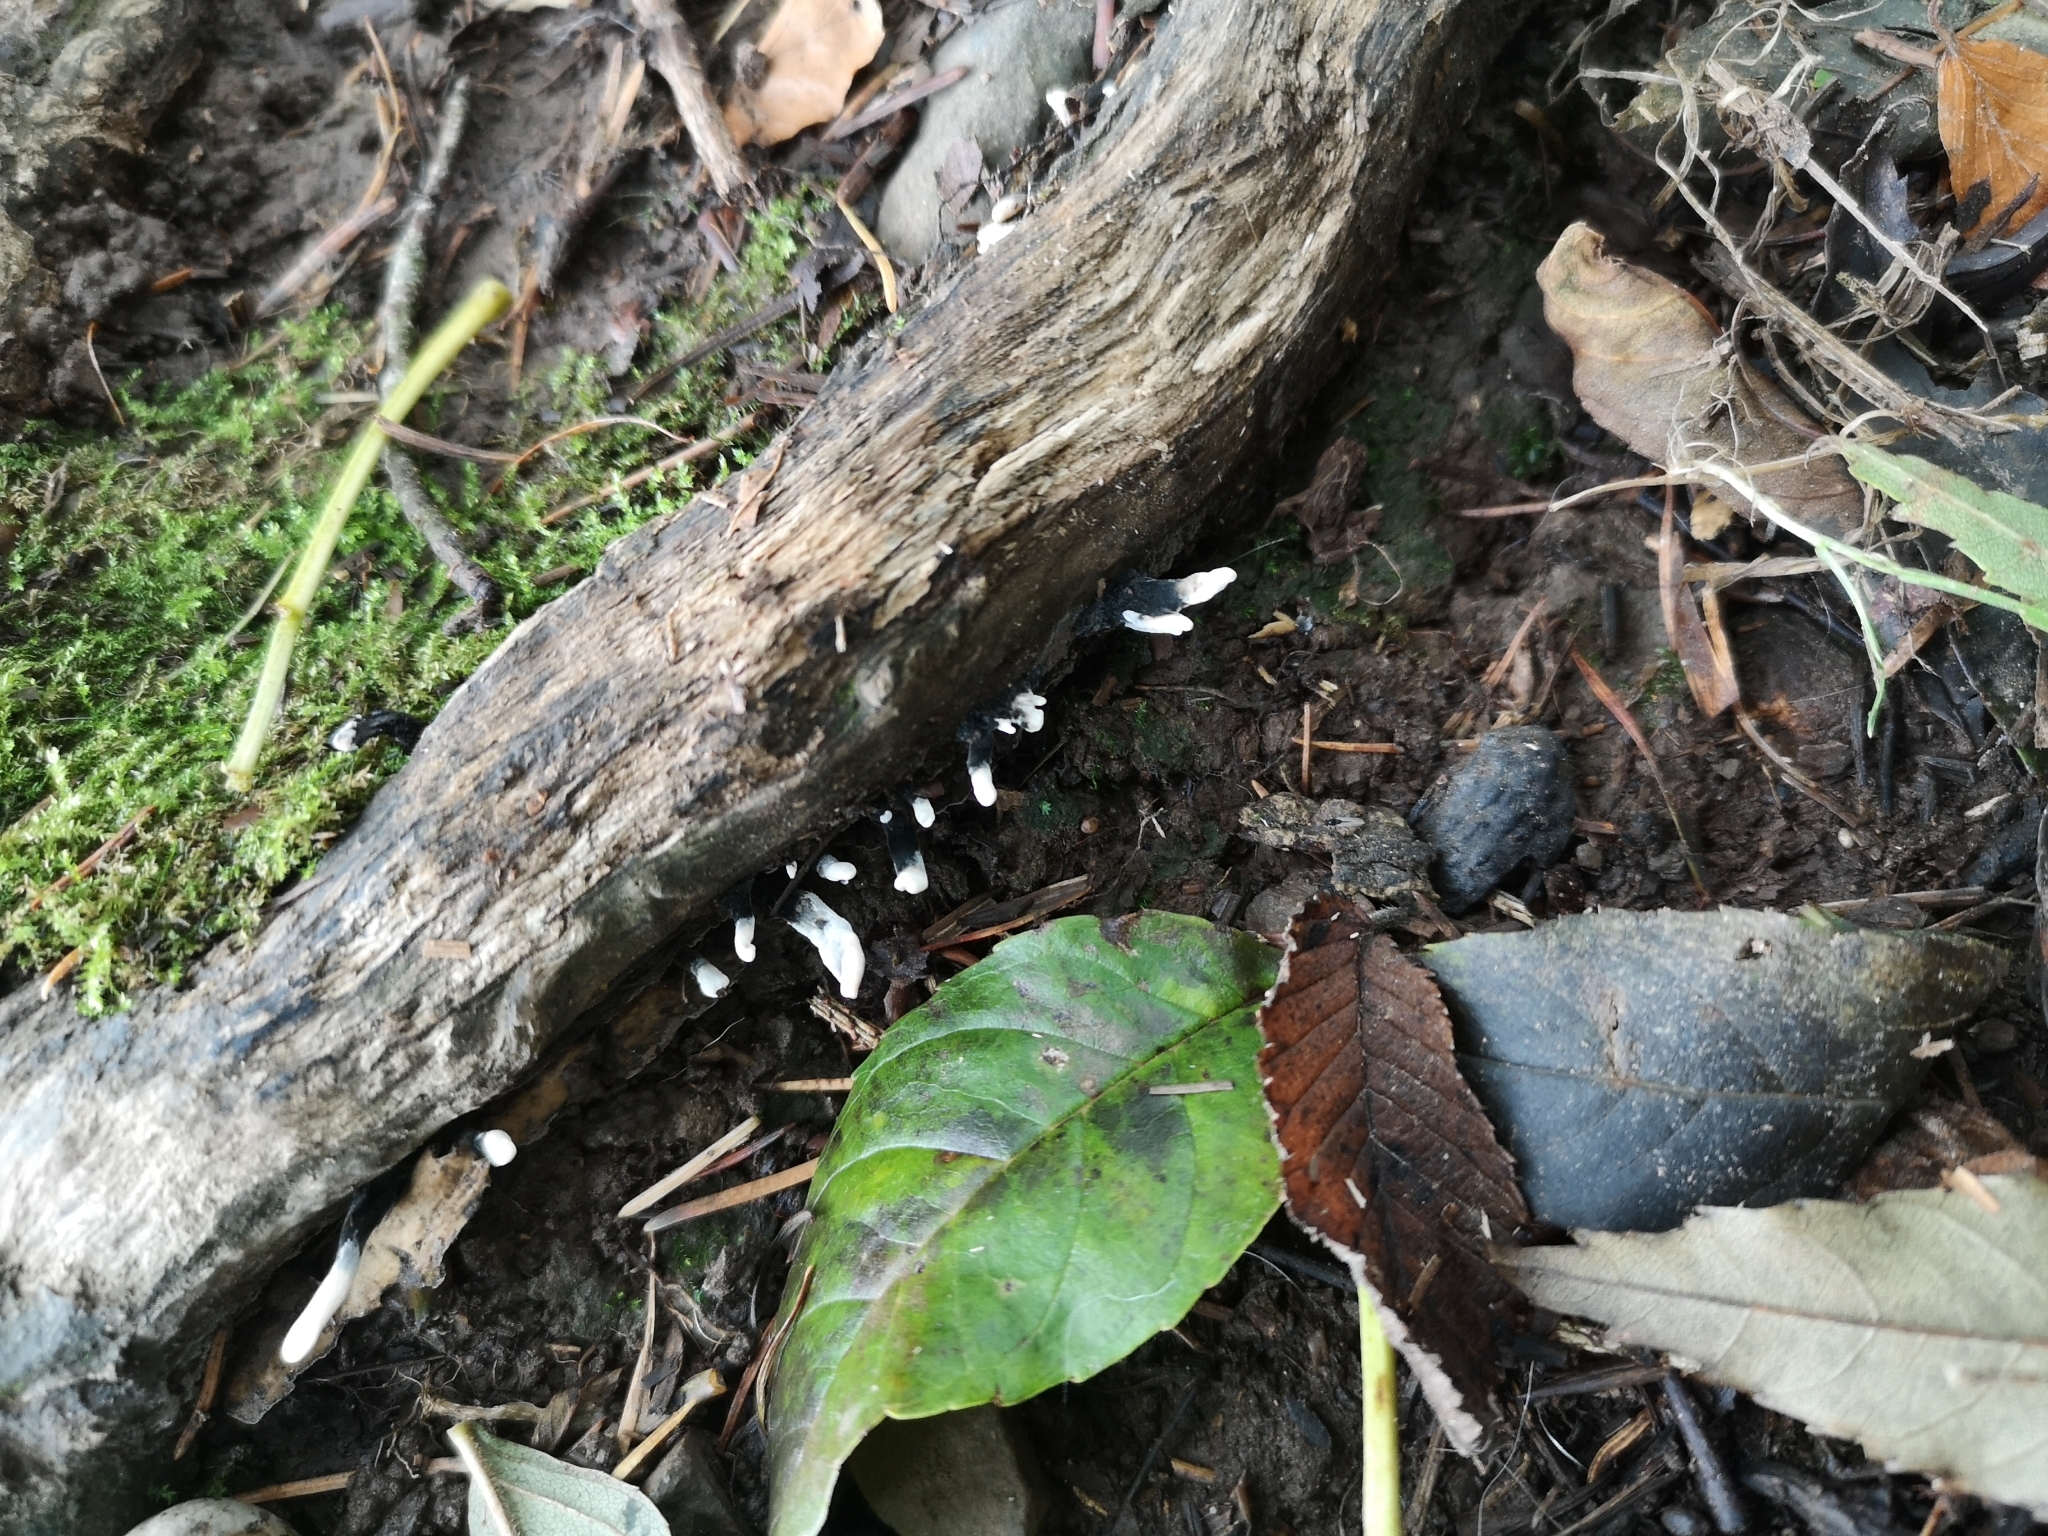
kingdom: Fungi
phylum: Ascomycota
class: Sordariomycetes
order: Xylariales
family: Xylariaceae
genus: Xylaria
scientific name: Xylaria hypoxylon
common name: Candle-snuff fungus
